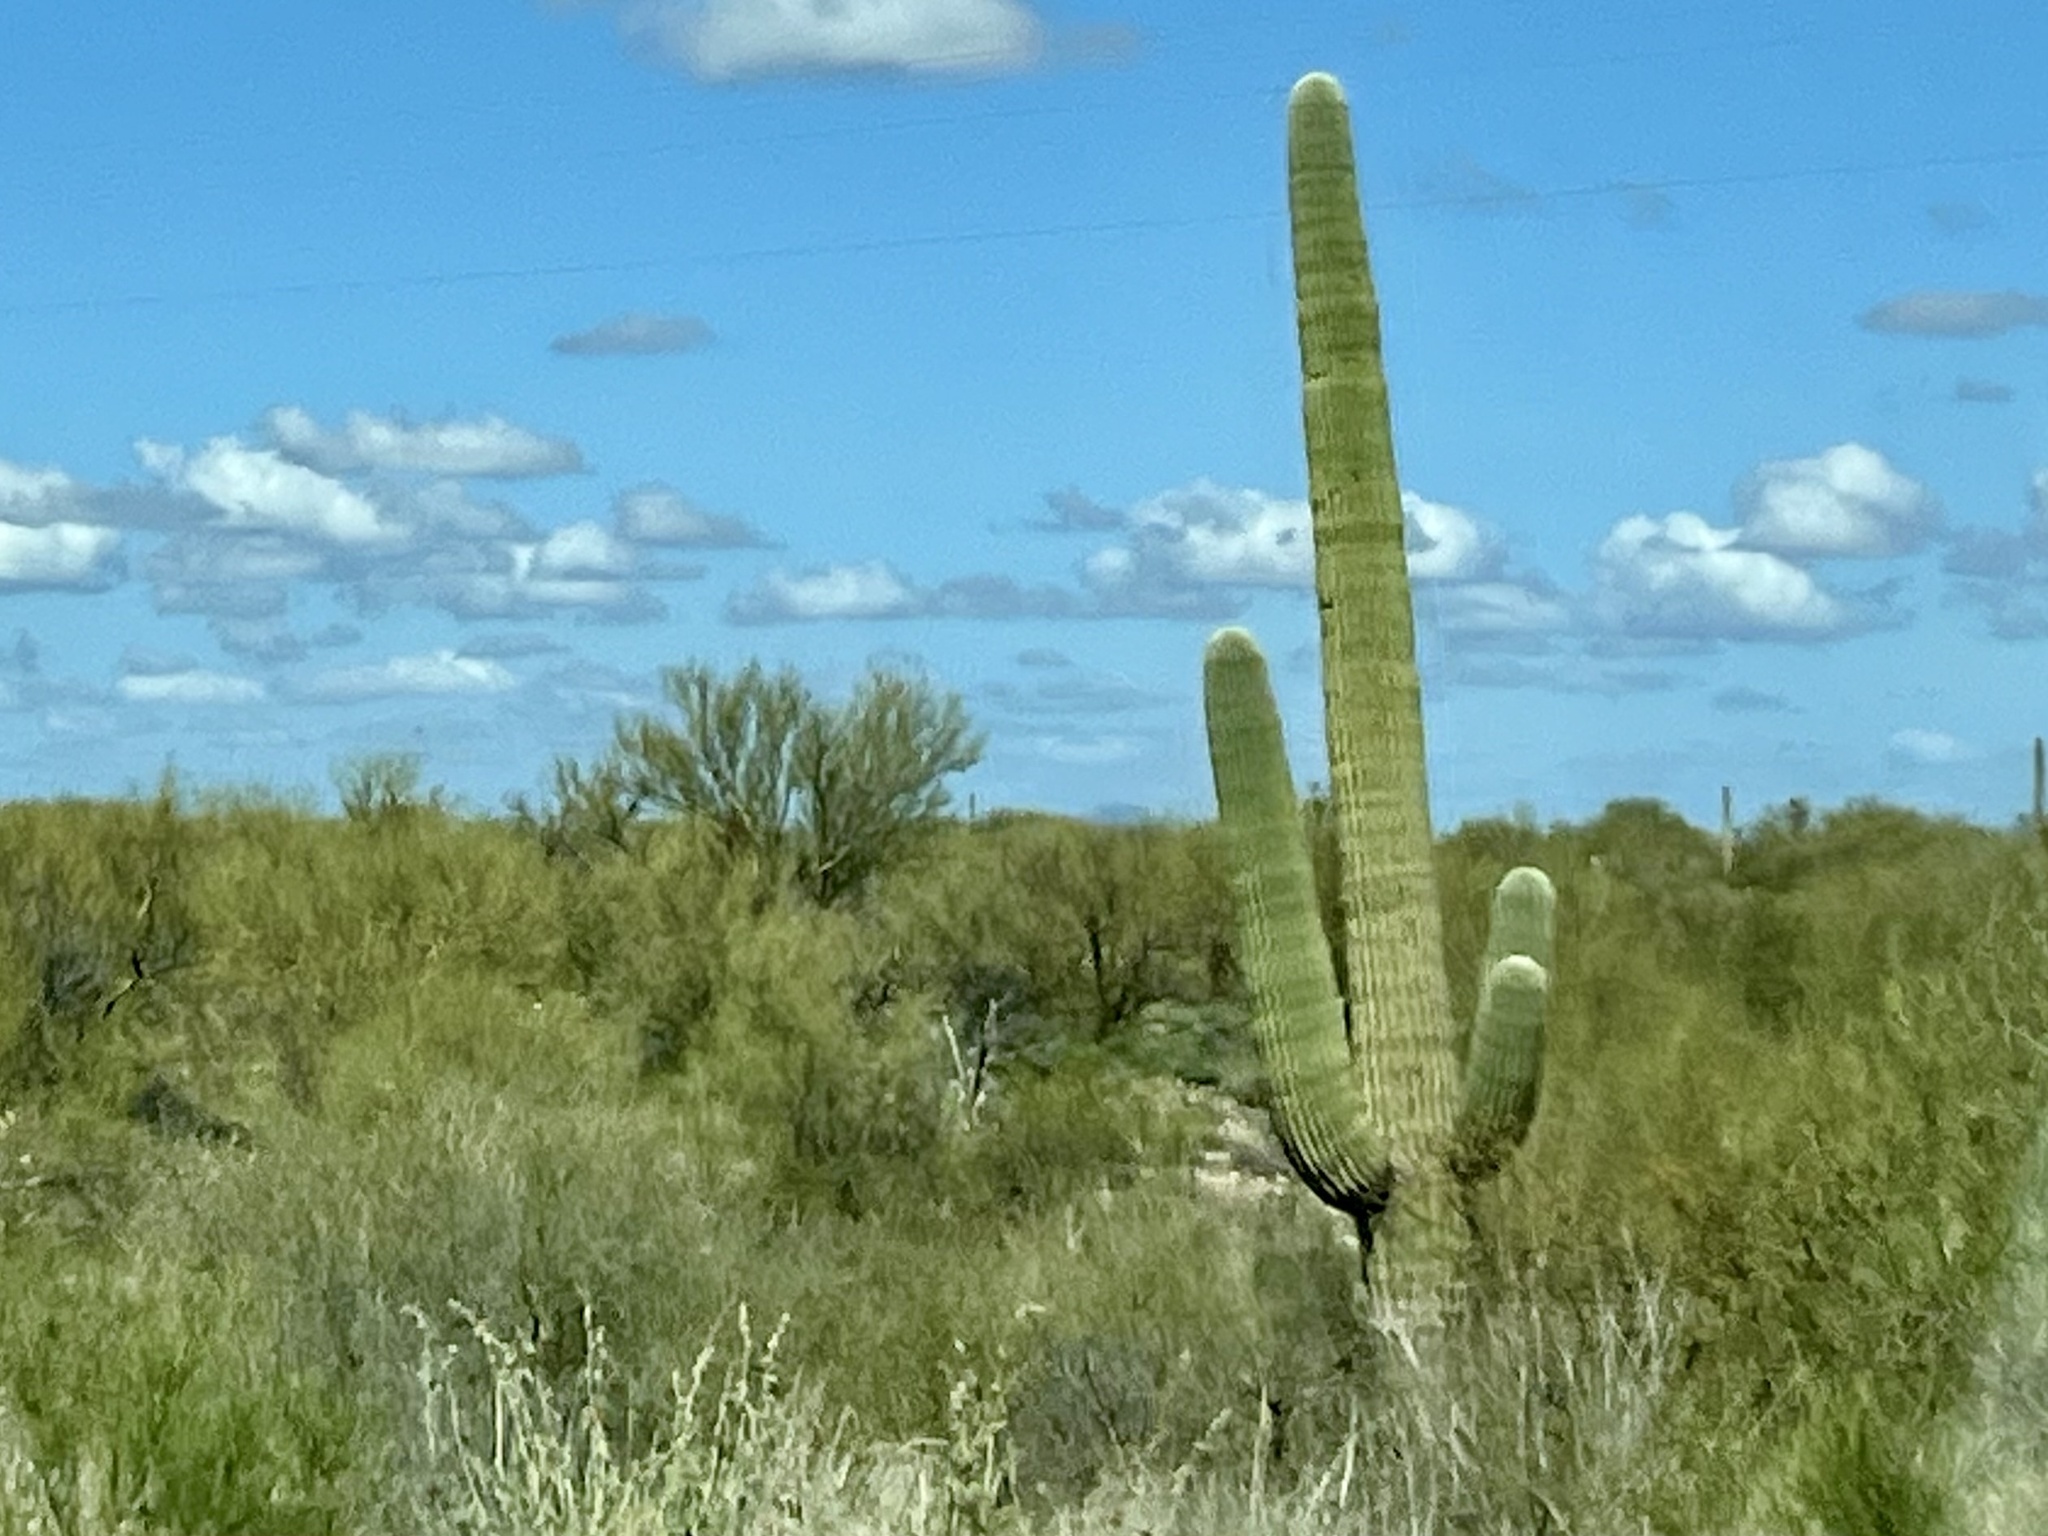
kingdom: Plantae
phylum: Tracheophyta
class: Magnoliopsida
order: Caryophyllales
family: Cactaceae
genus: Carnegiea
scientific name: Carnegiea gigantea
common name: Saguaro
